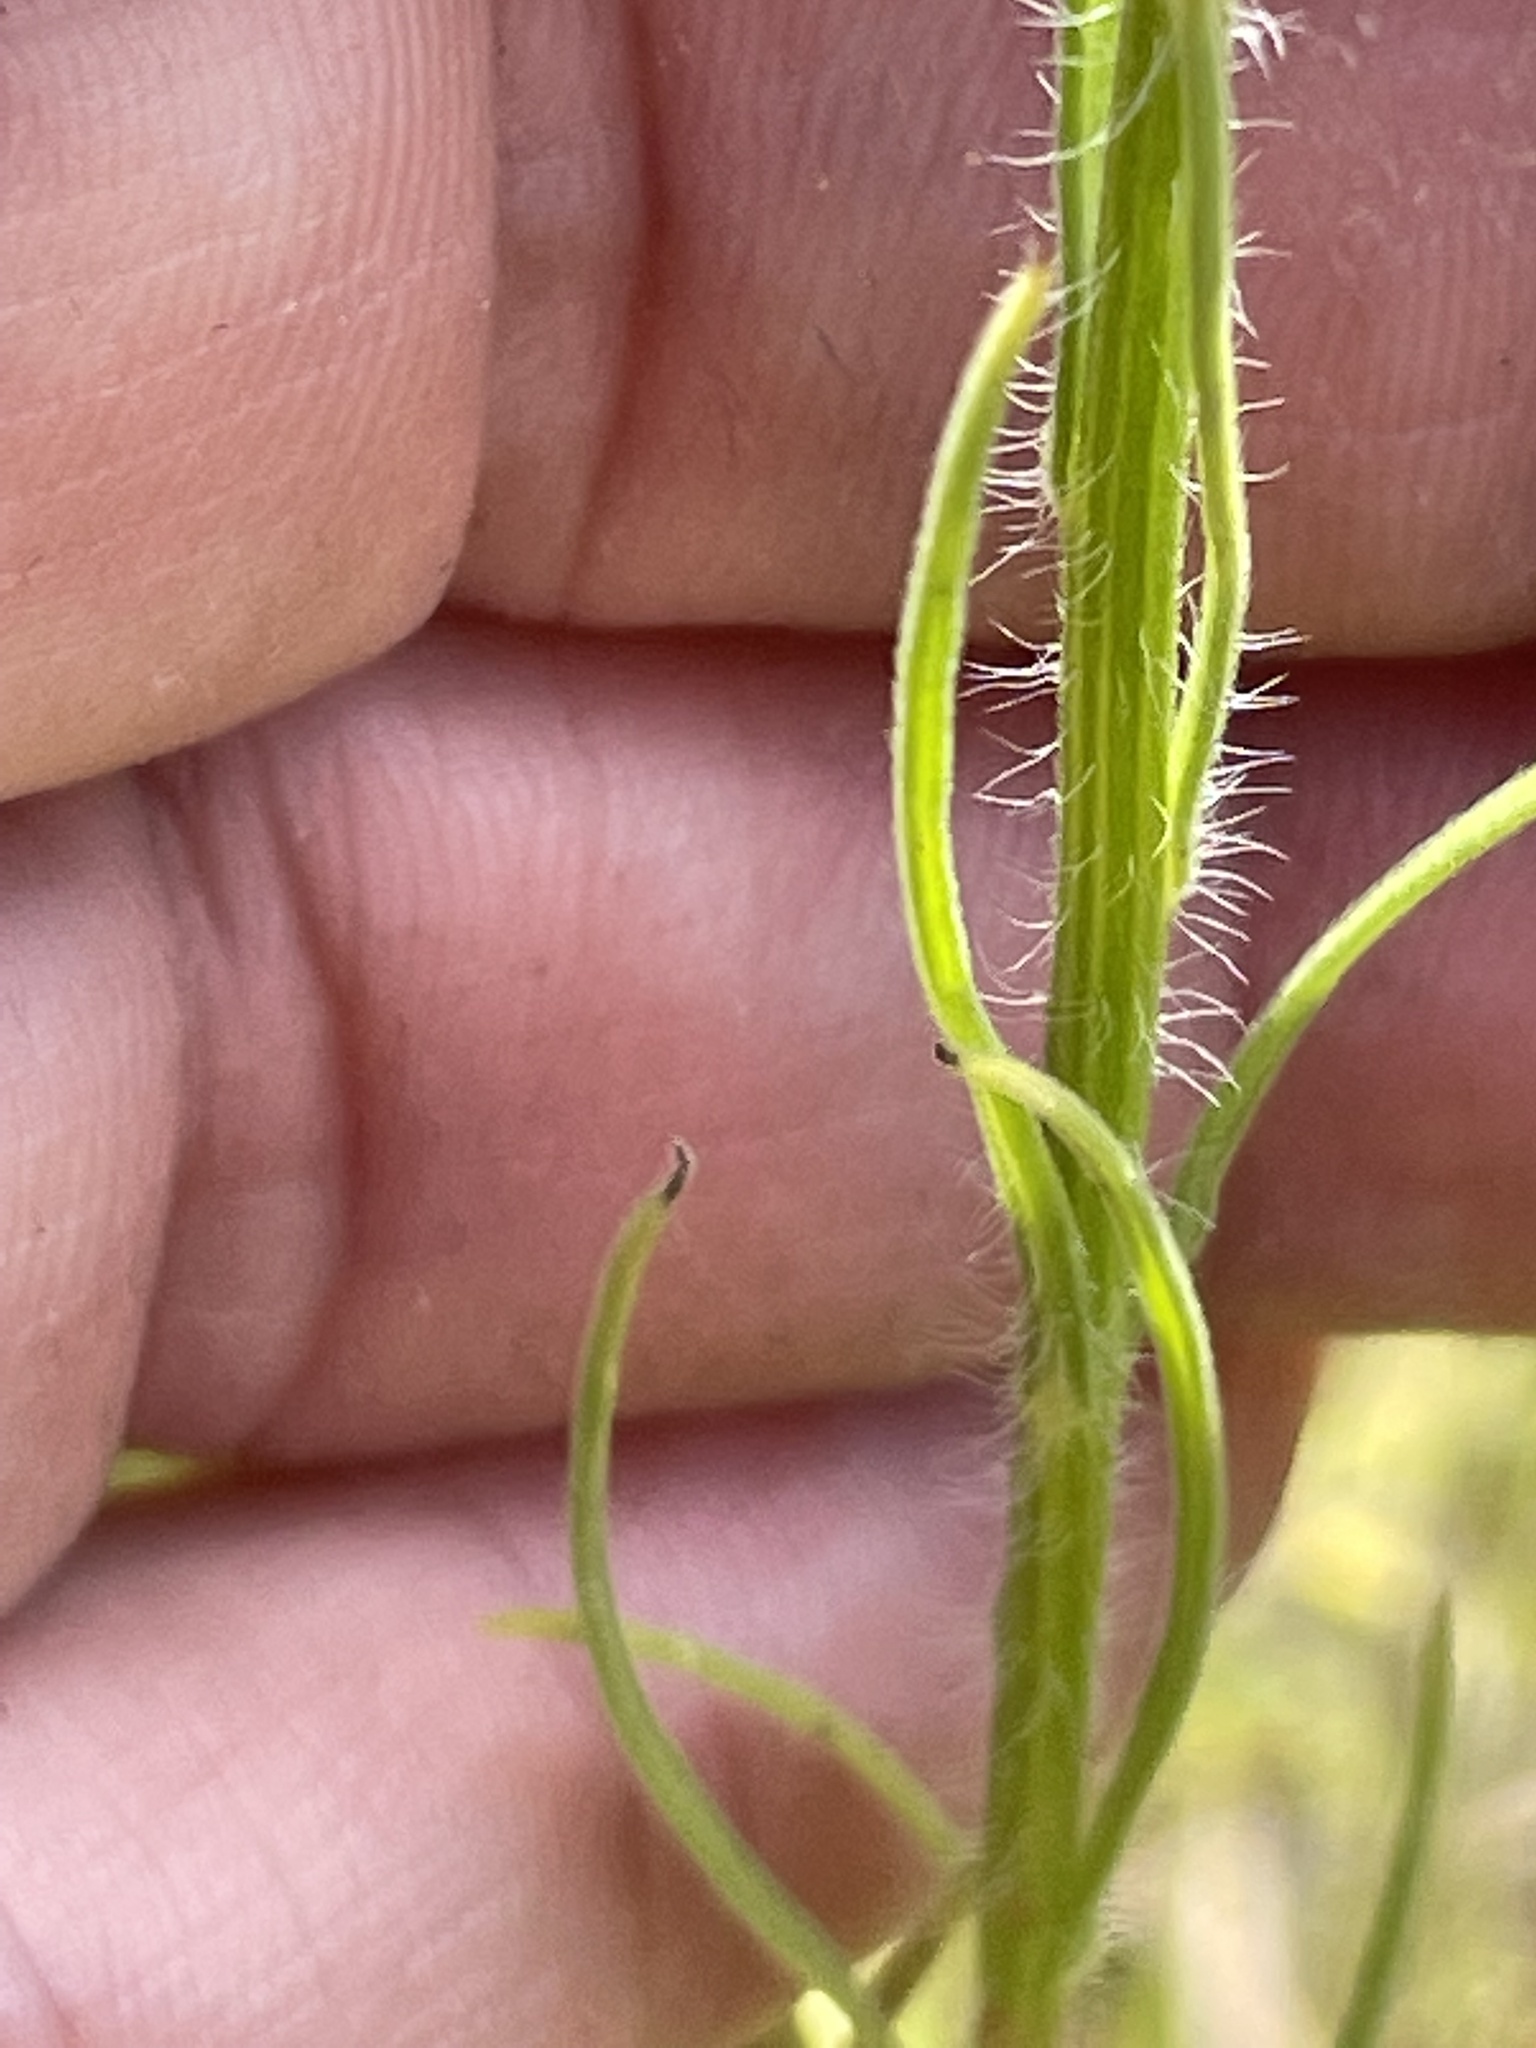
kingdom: Plantae
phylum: Tracheophyta
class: Magnoliopsida
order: Asterales
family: Asteraceae
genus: Erigeron
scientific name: Erigeron bonariensis
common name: Argentine fleabane
